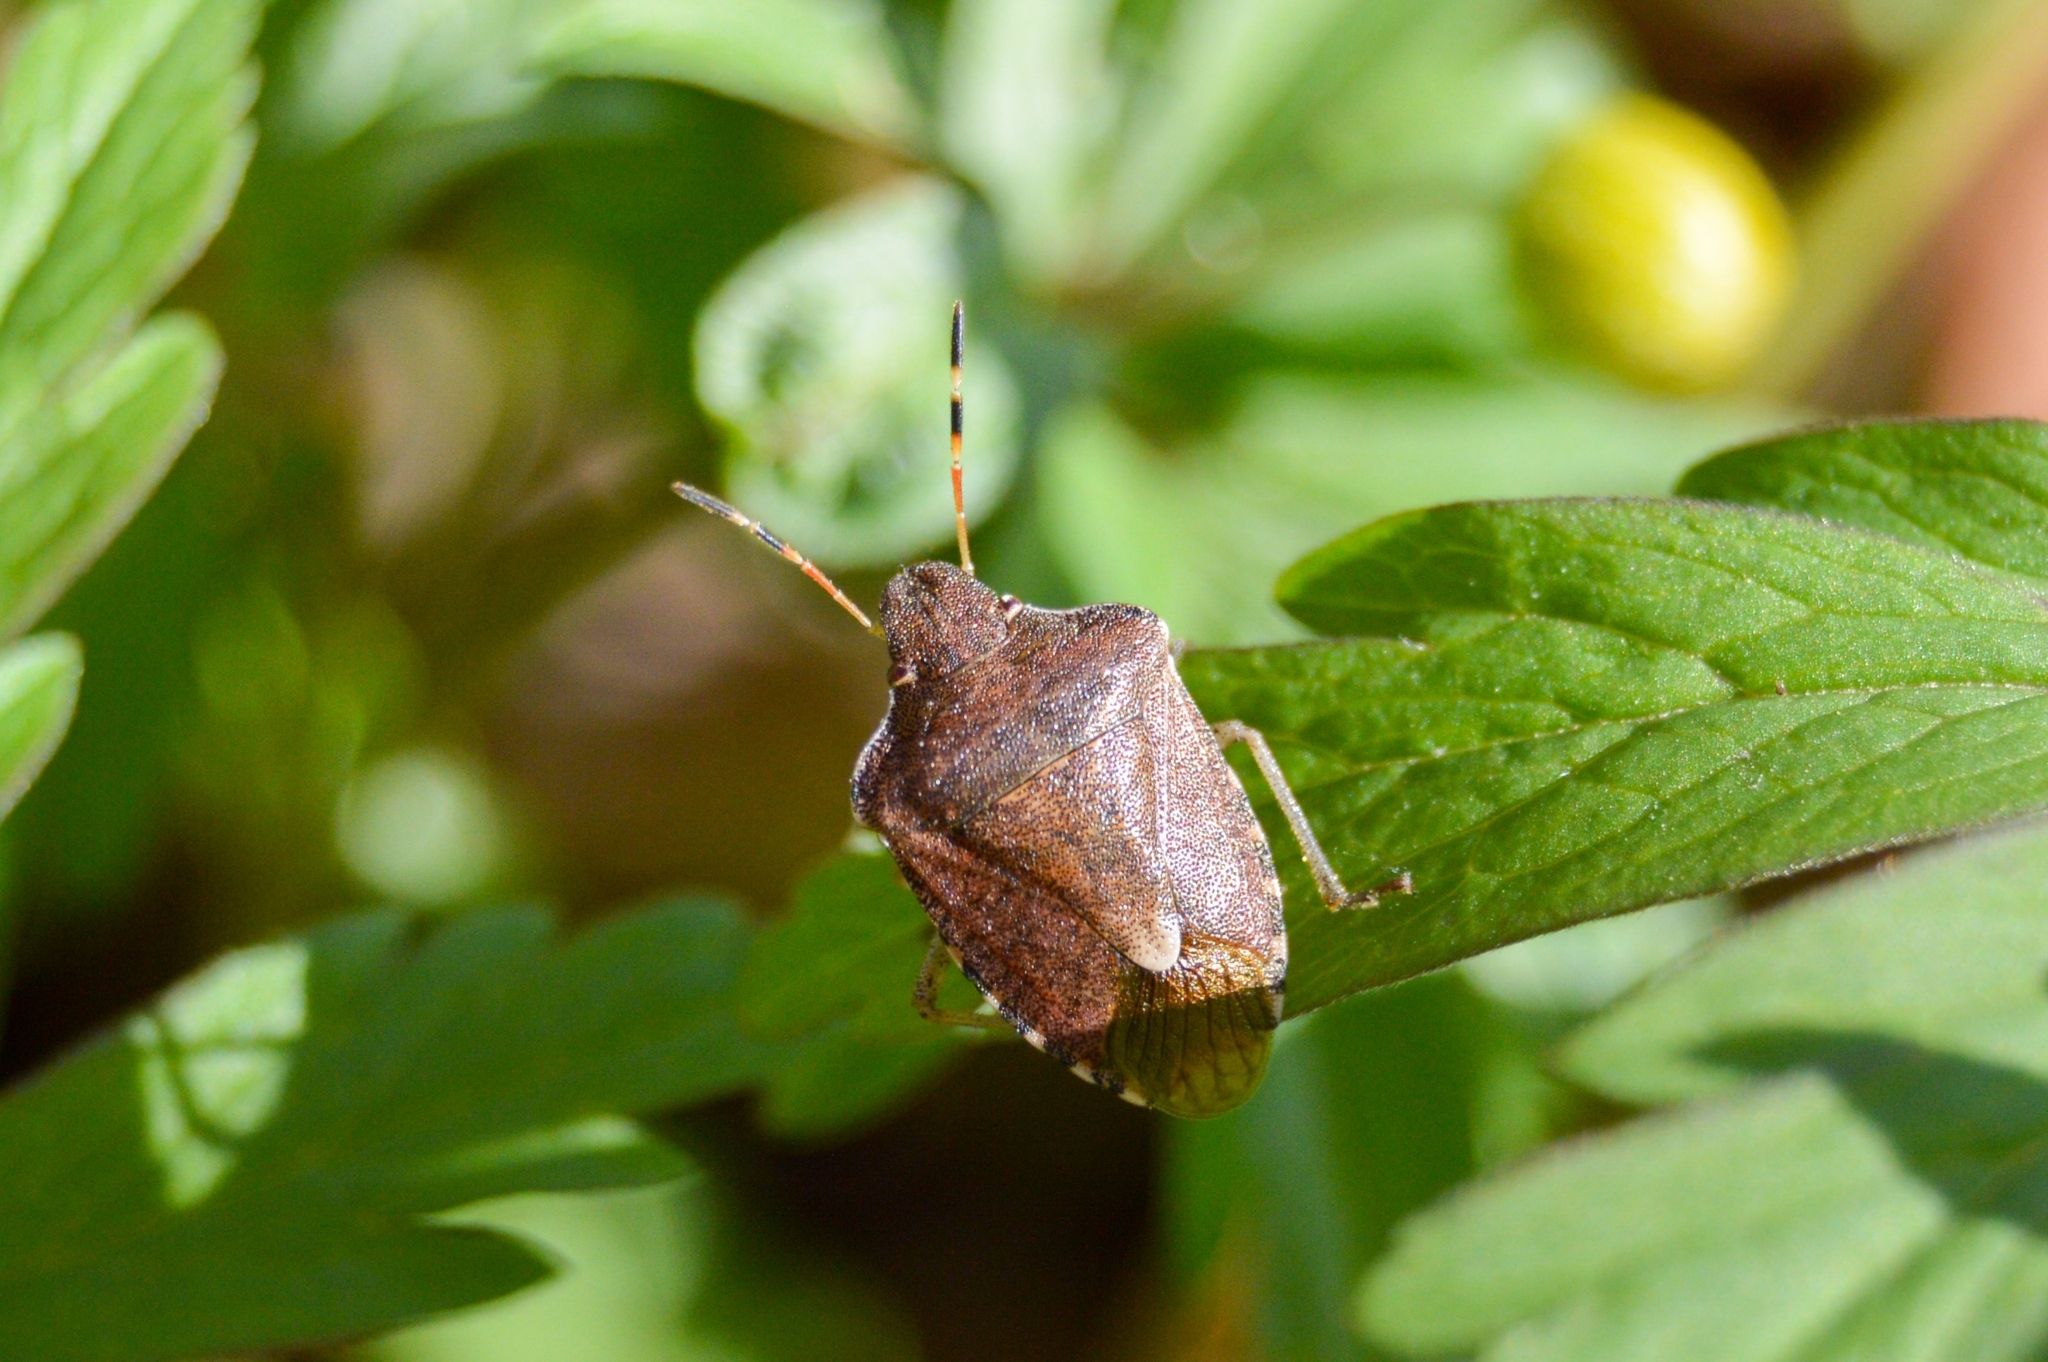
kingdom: Animalia
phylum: Arthropoda
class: Insecta
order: Hemiptera
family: Pentatomidae
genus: Holcostethus
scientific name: Holcostethus strictus
